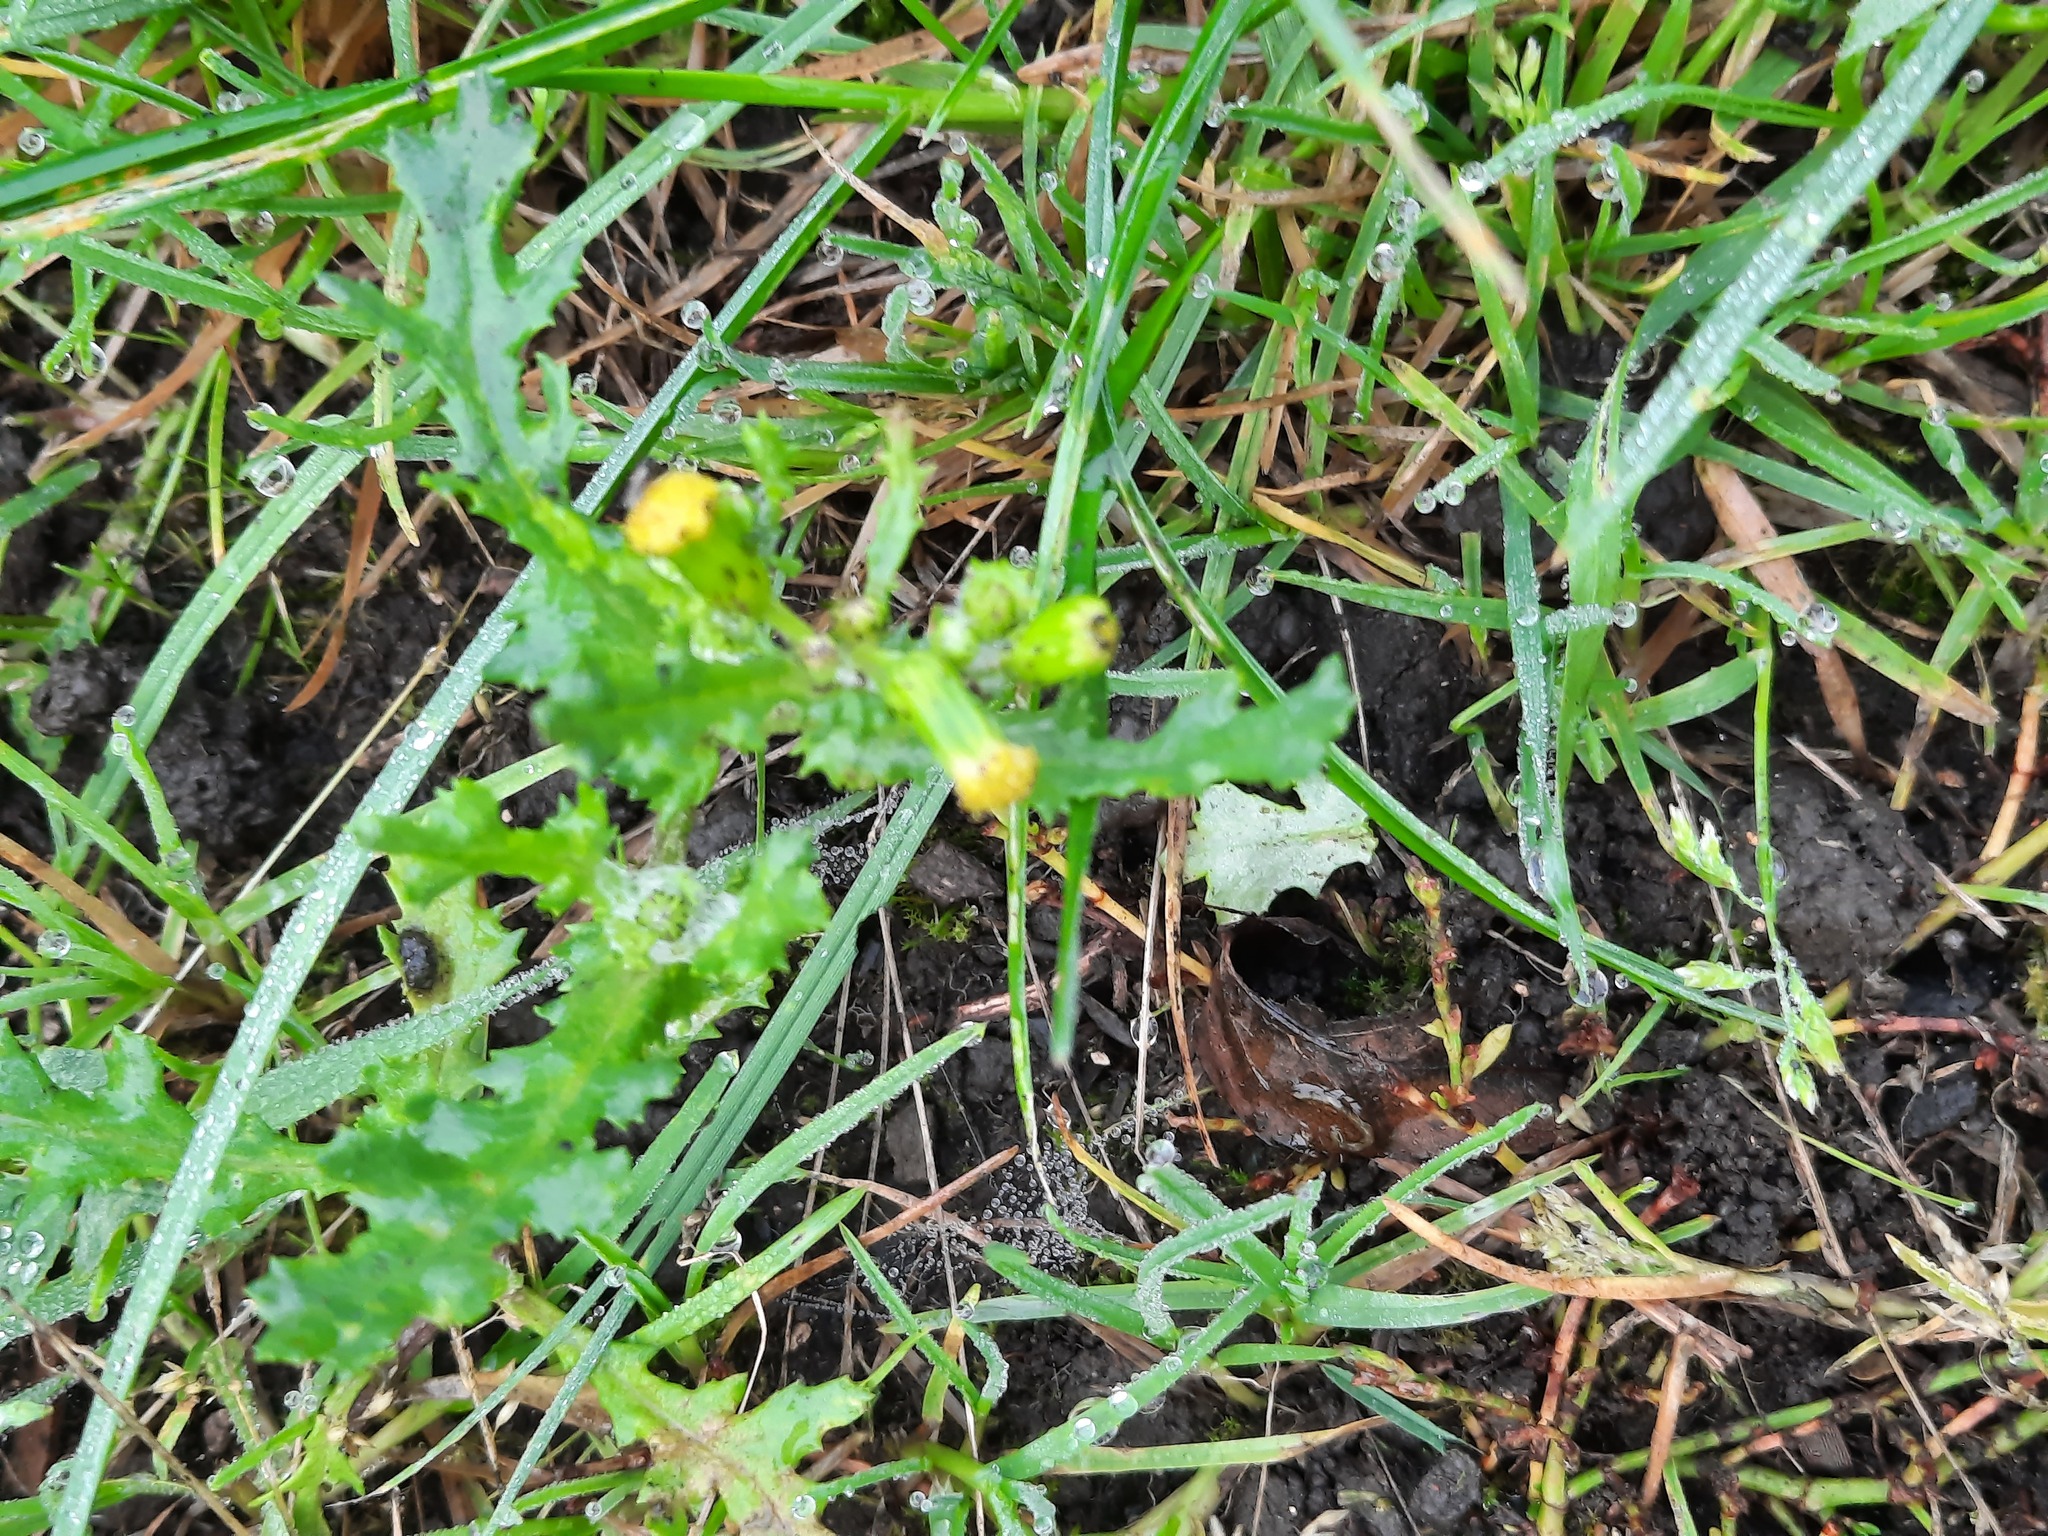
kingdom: Plantae
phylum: Tracheophyta
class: Magnoliopsida
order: Asterales
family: Asteraceae
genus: Senecio
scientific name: Senecio vulgaris
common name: Old-man-in-the-spring
